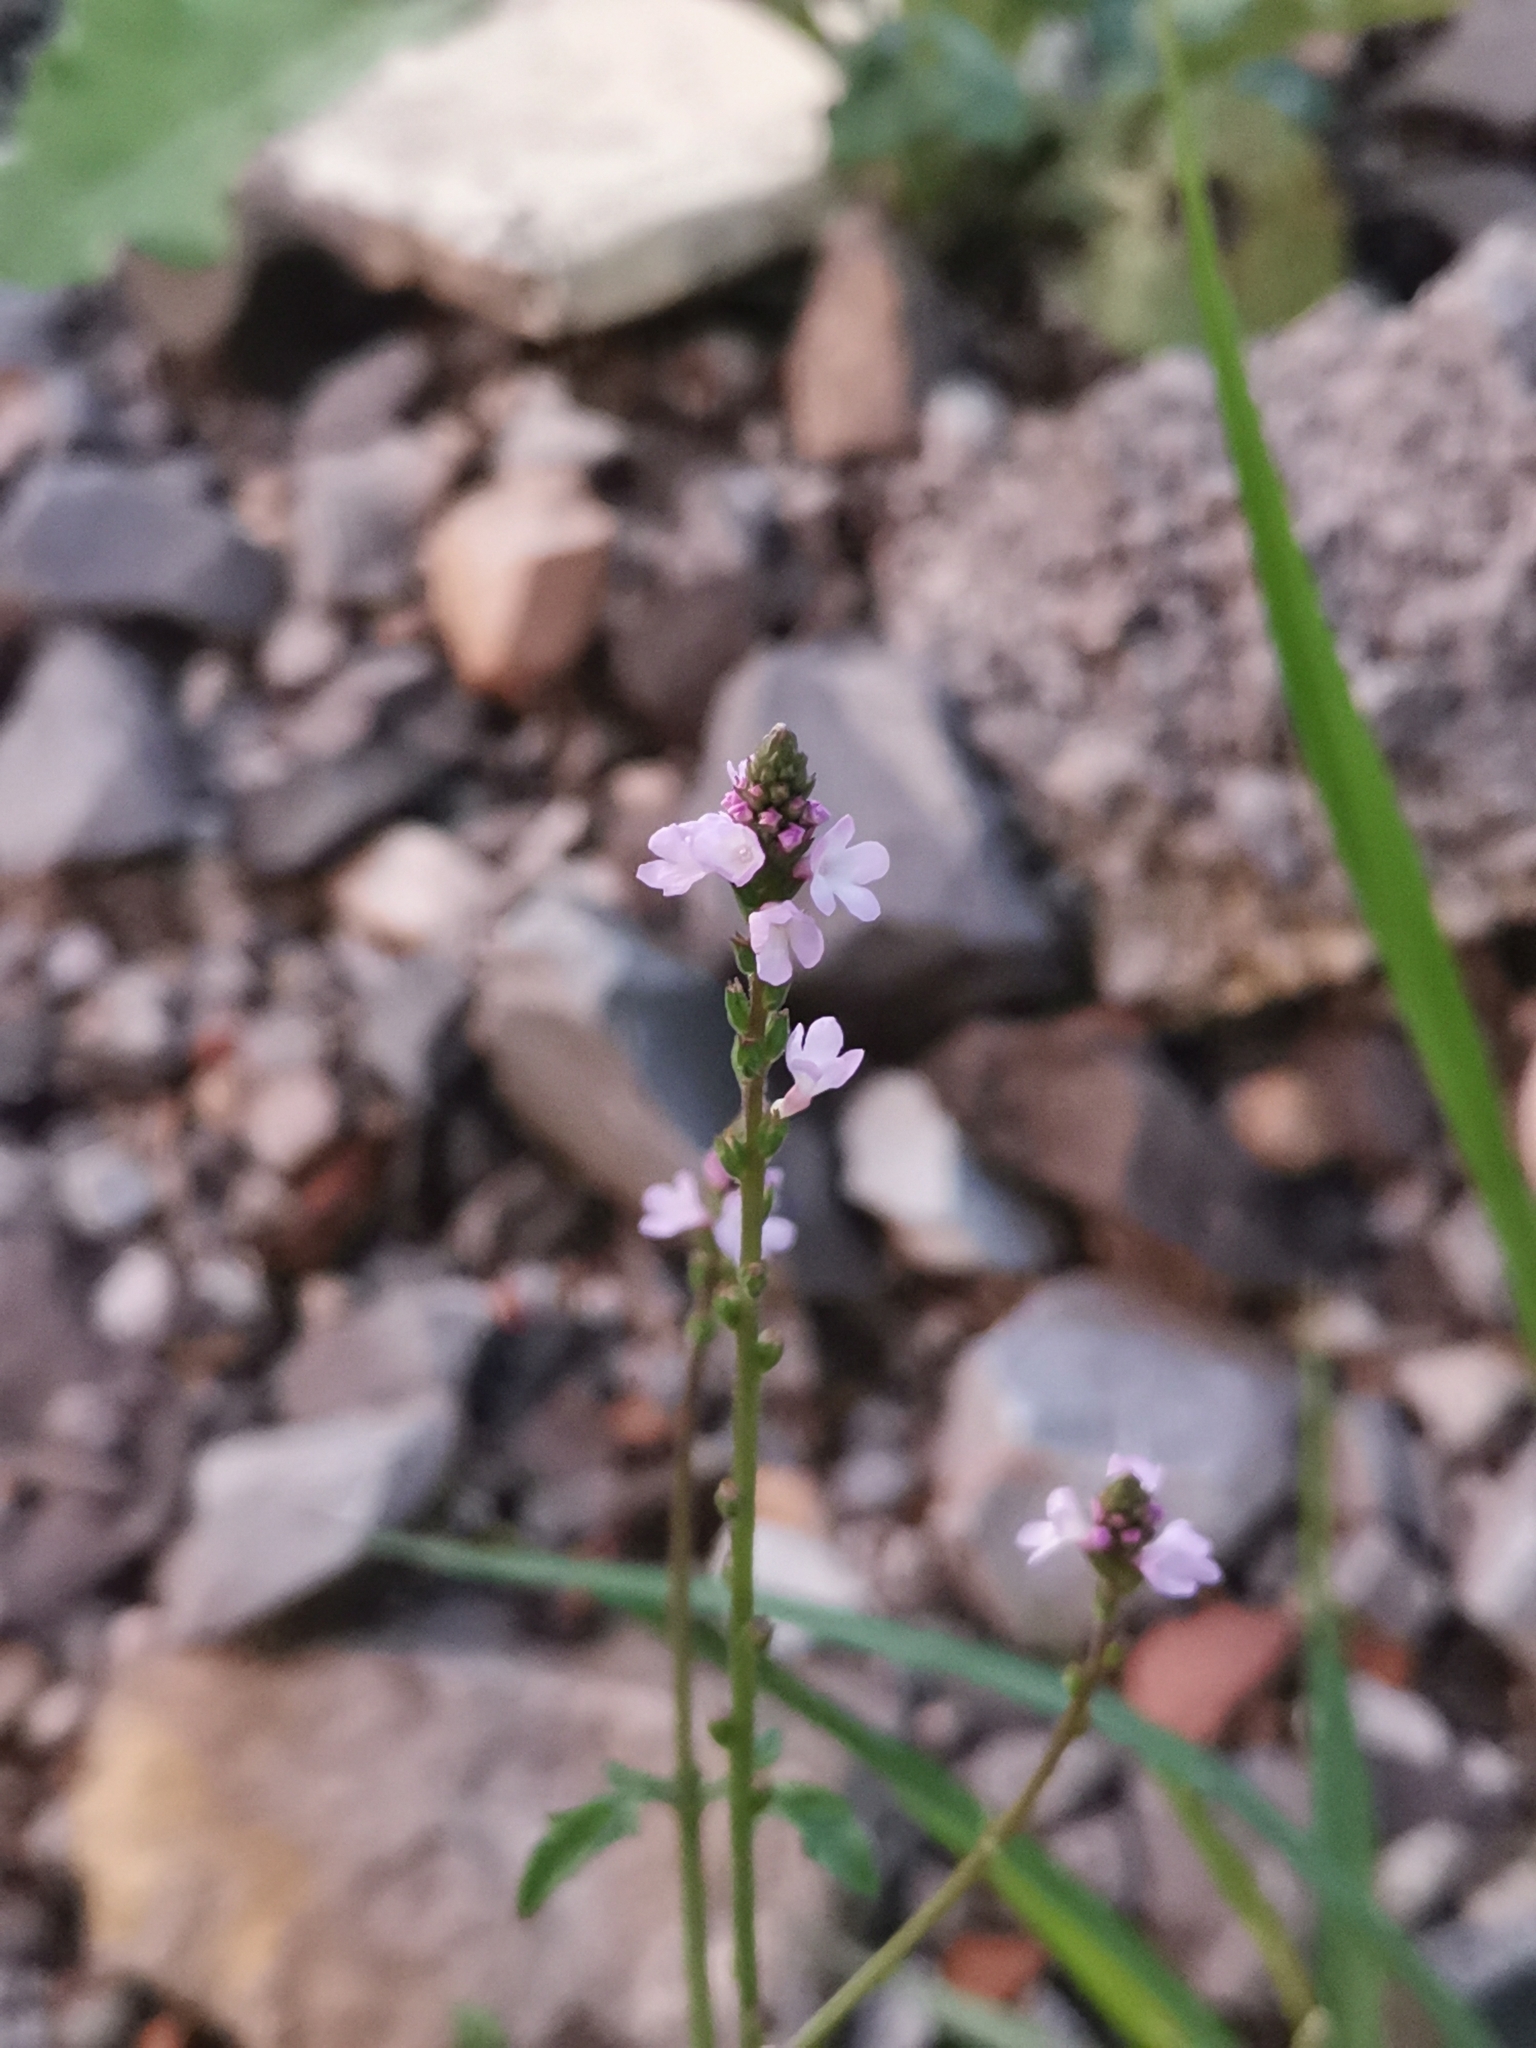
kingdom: Plantae
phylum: Tracheophyta
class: Magnoliopsida
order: Lamiales
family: Verbenaceae
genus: Verbena
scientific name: Verbena officinalis
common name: Vervain
